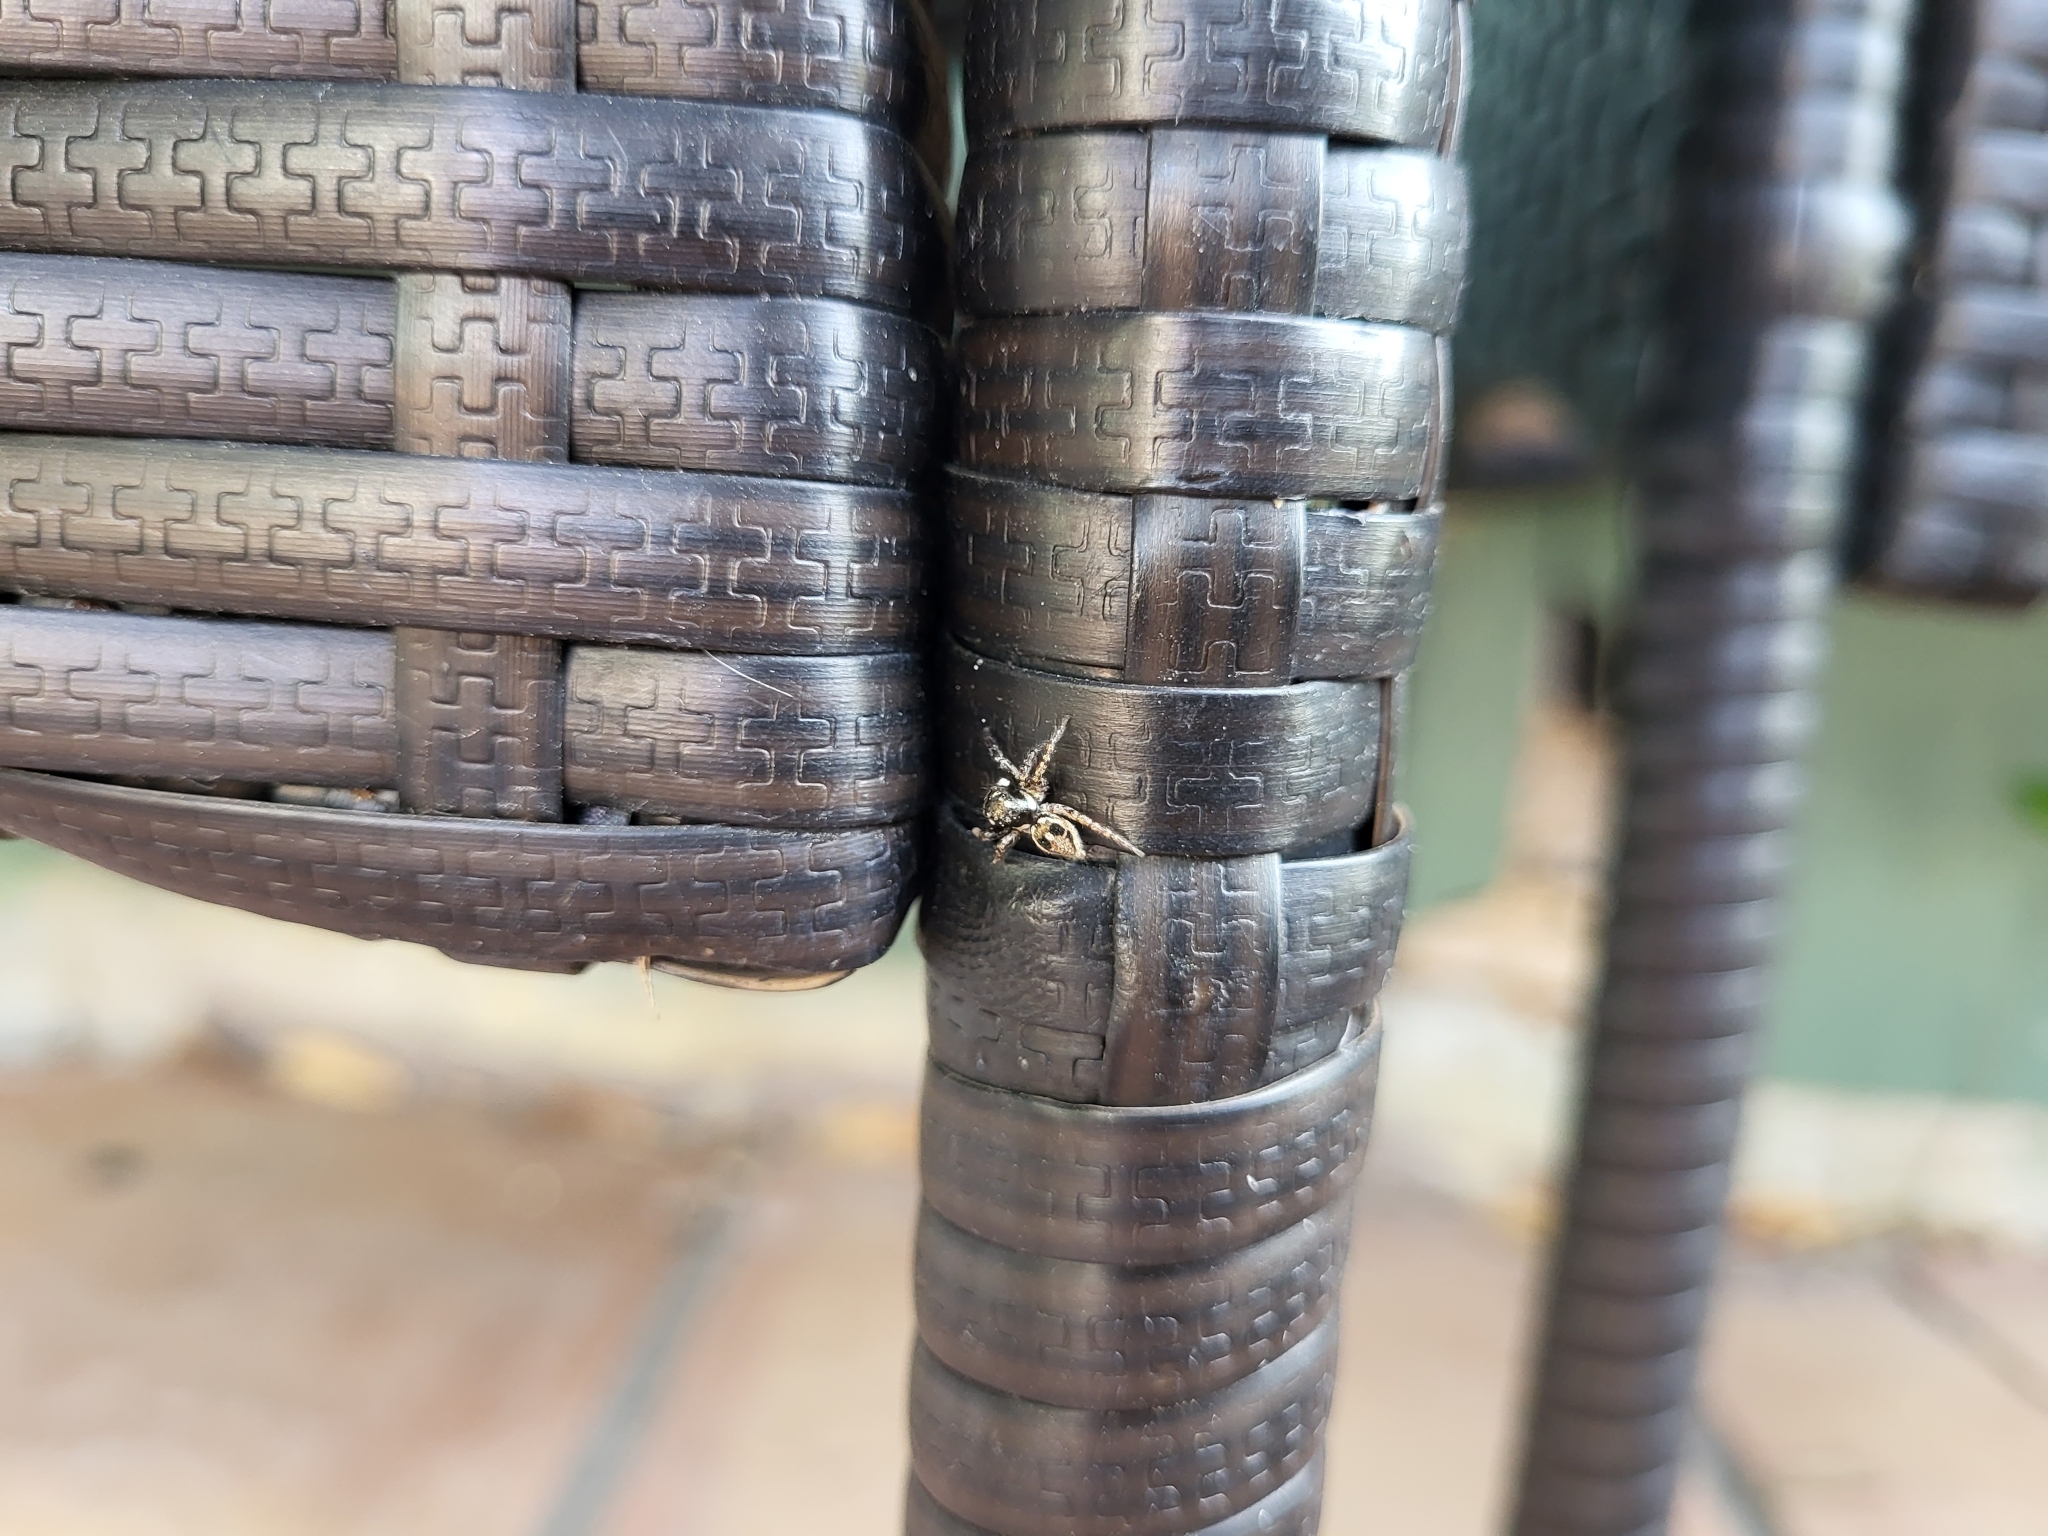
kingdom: Animalia
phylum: Arthropoda
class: Arachnida
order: Araneae
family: Salticidae
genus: Anasaitis
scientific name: Anasaitis canosa
